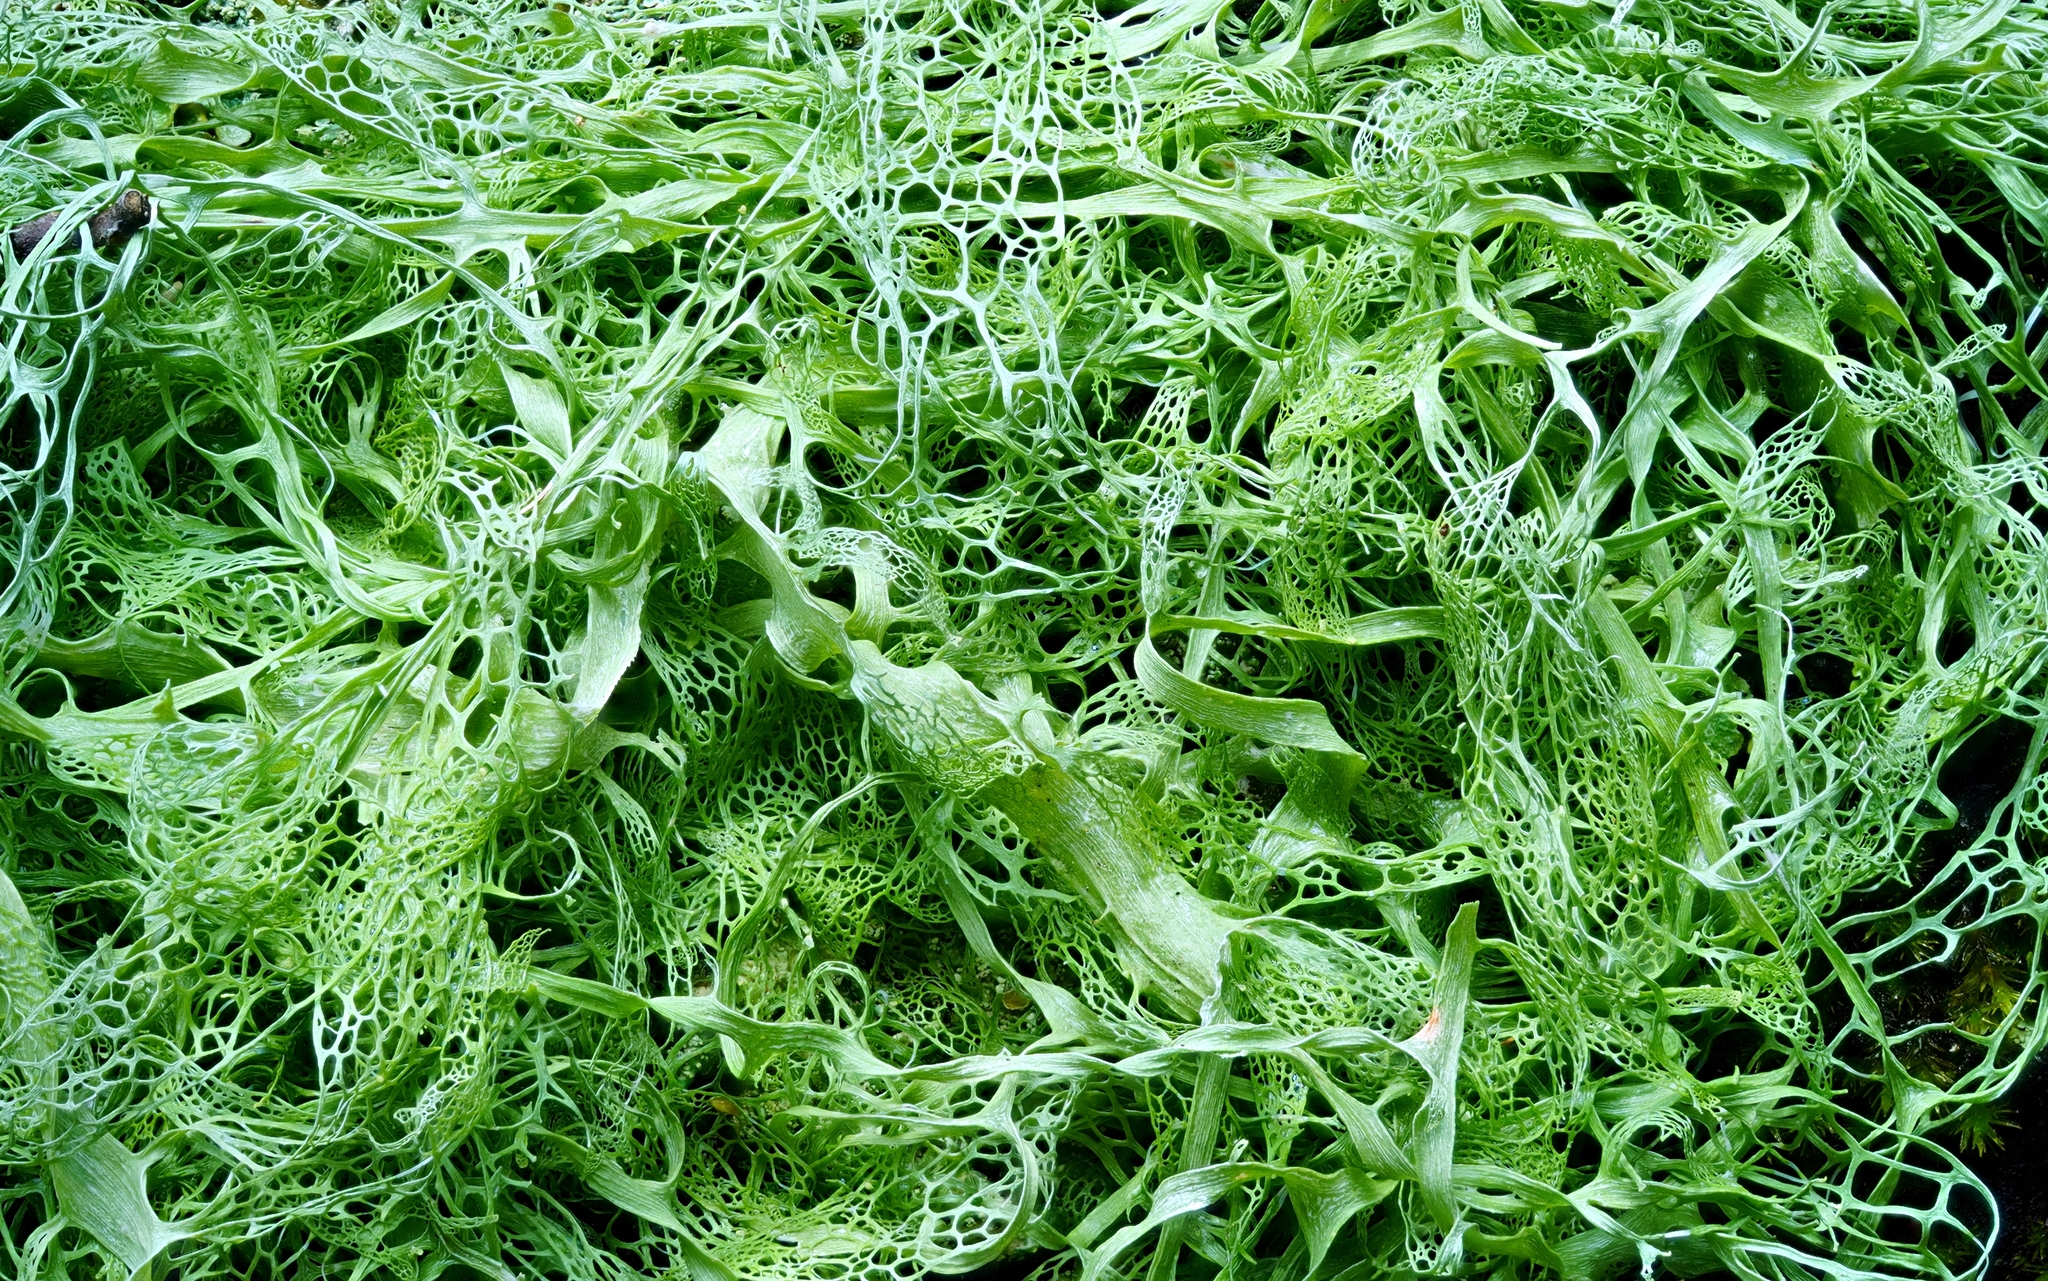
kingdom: Fungi
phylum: Ascomycota
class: Lecanoromycetes
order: Lecanorales
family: Ramalinaceae
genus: Ramalina
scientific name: Ramalina menziesii
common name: Lace lichen
